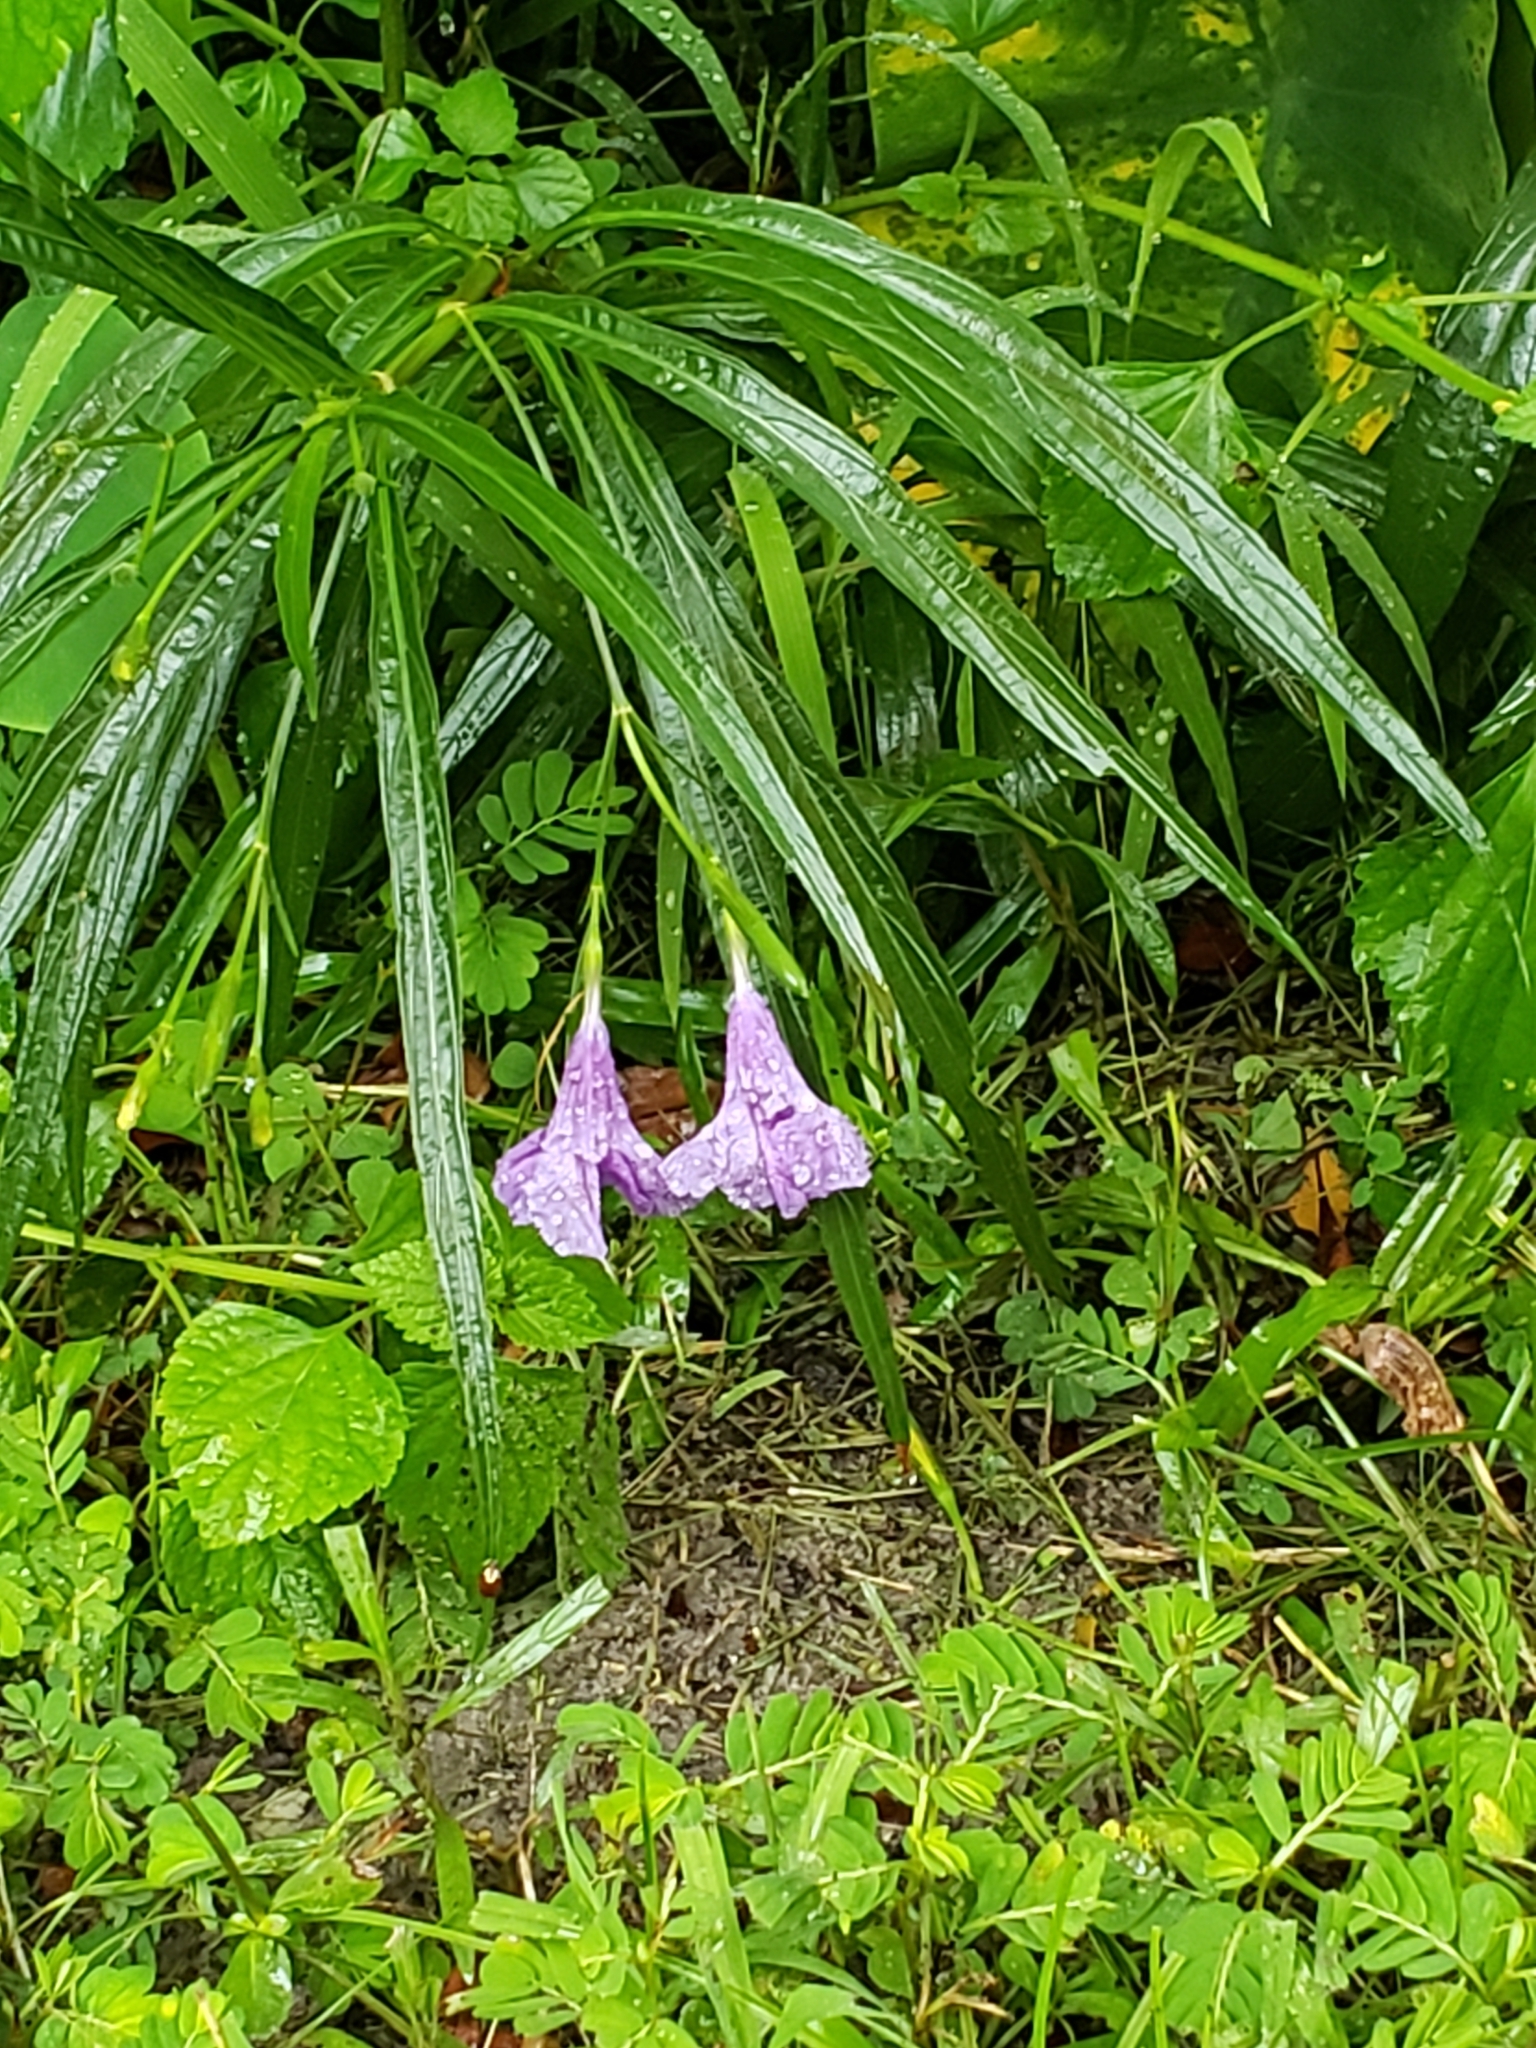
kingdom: Plantae
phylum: Tracheophyta
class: Magnoliopsida
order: Lamiales
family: Acanthaceae
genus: Ruellia
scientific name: Ruellia simplex
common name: Softseed wild petunia
